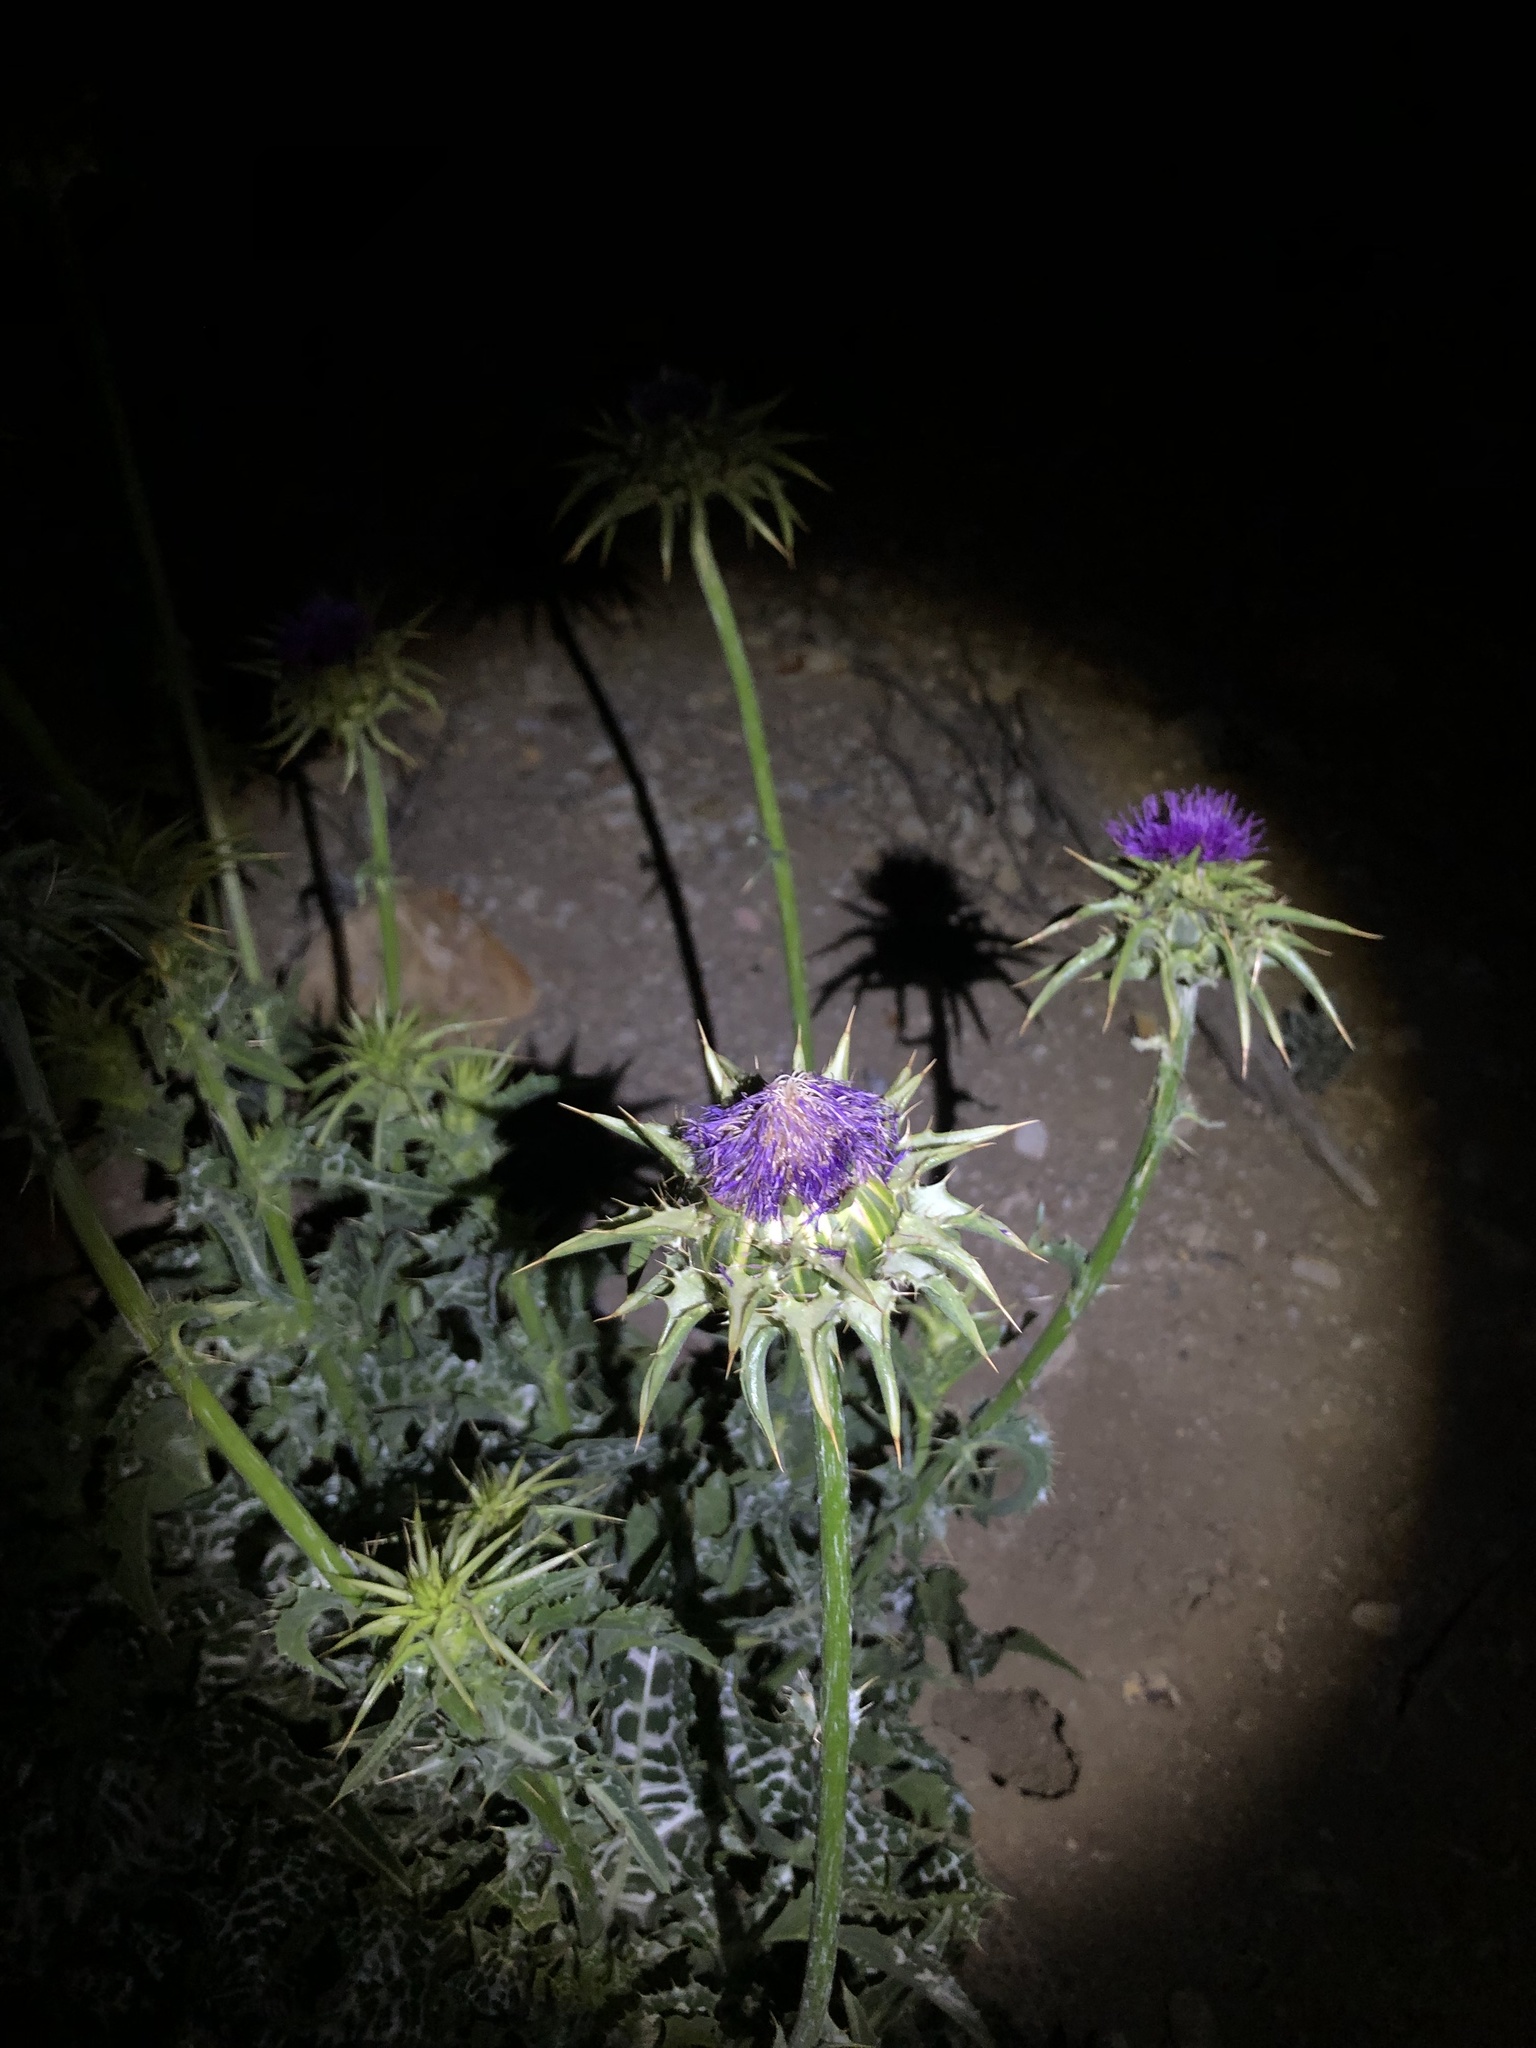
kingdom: Plantae
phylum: Tracheophyta
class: Magnoliopsida
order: Asterales
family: Asteraceae
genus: Silybum
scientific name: Silybum marianum
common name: Milk thistle
